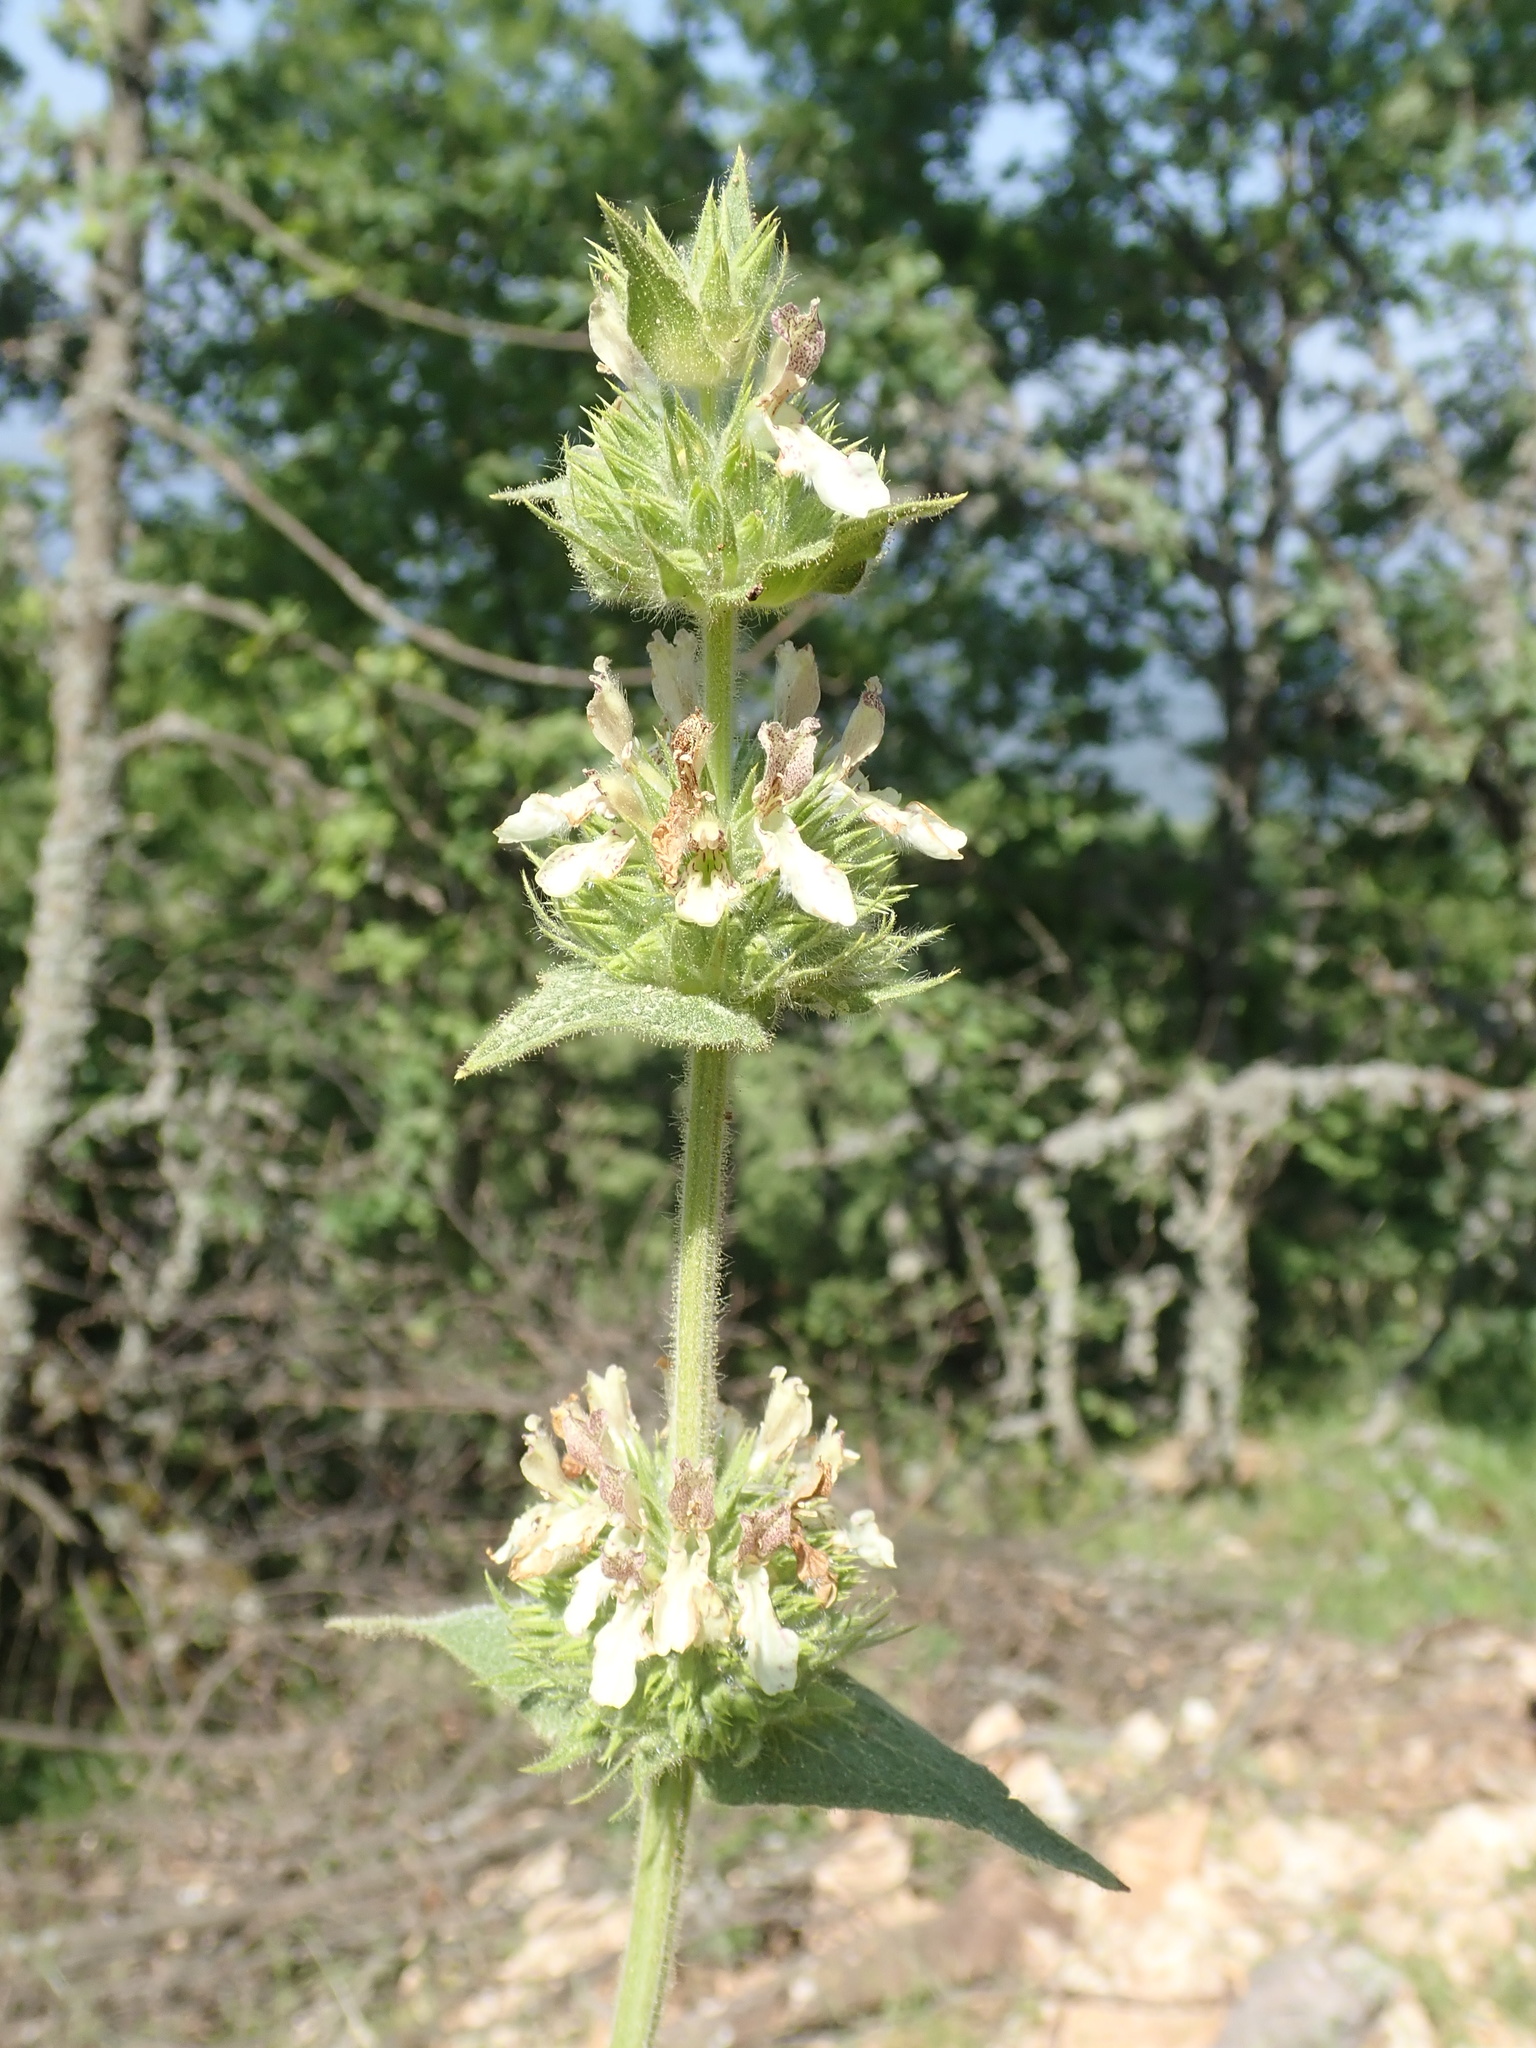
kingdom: Plantae
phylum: Tracheophyta
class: Magnoliopsida
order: Lamiales
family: Lamiaceae
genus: Stachys
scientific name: Stachys tmolea
